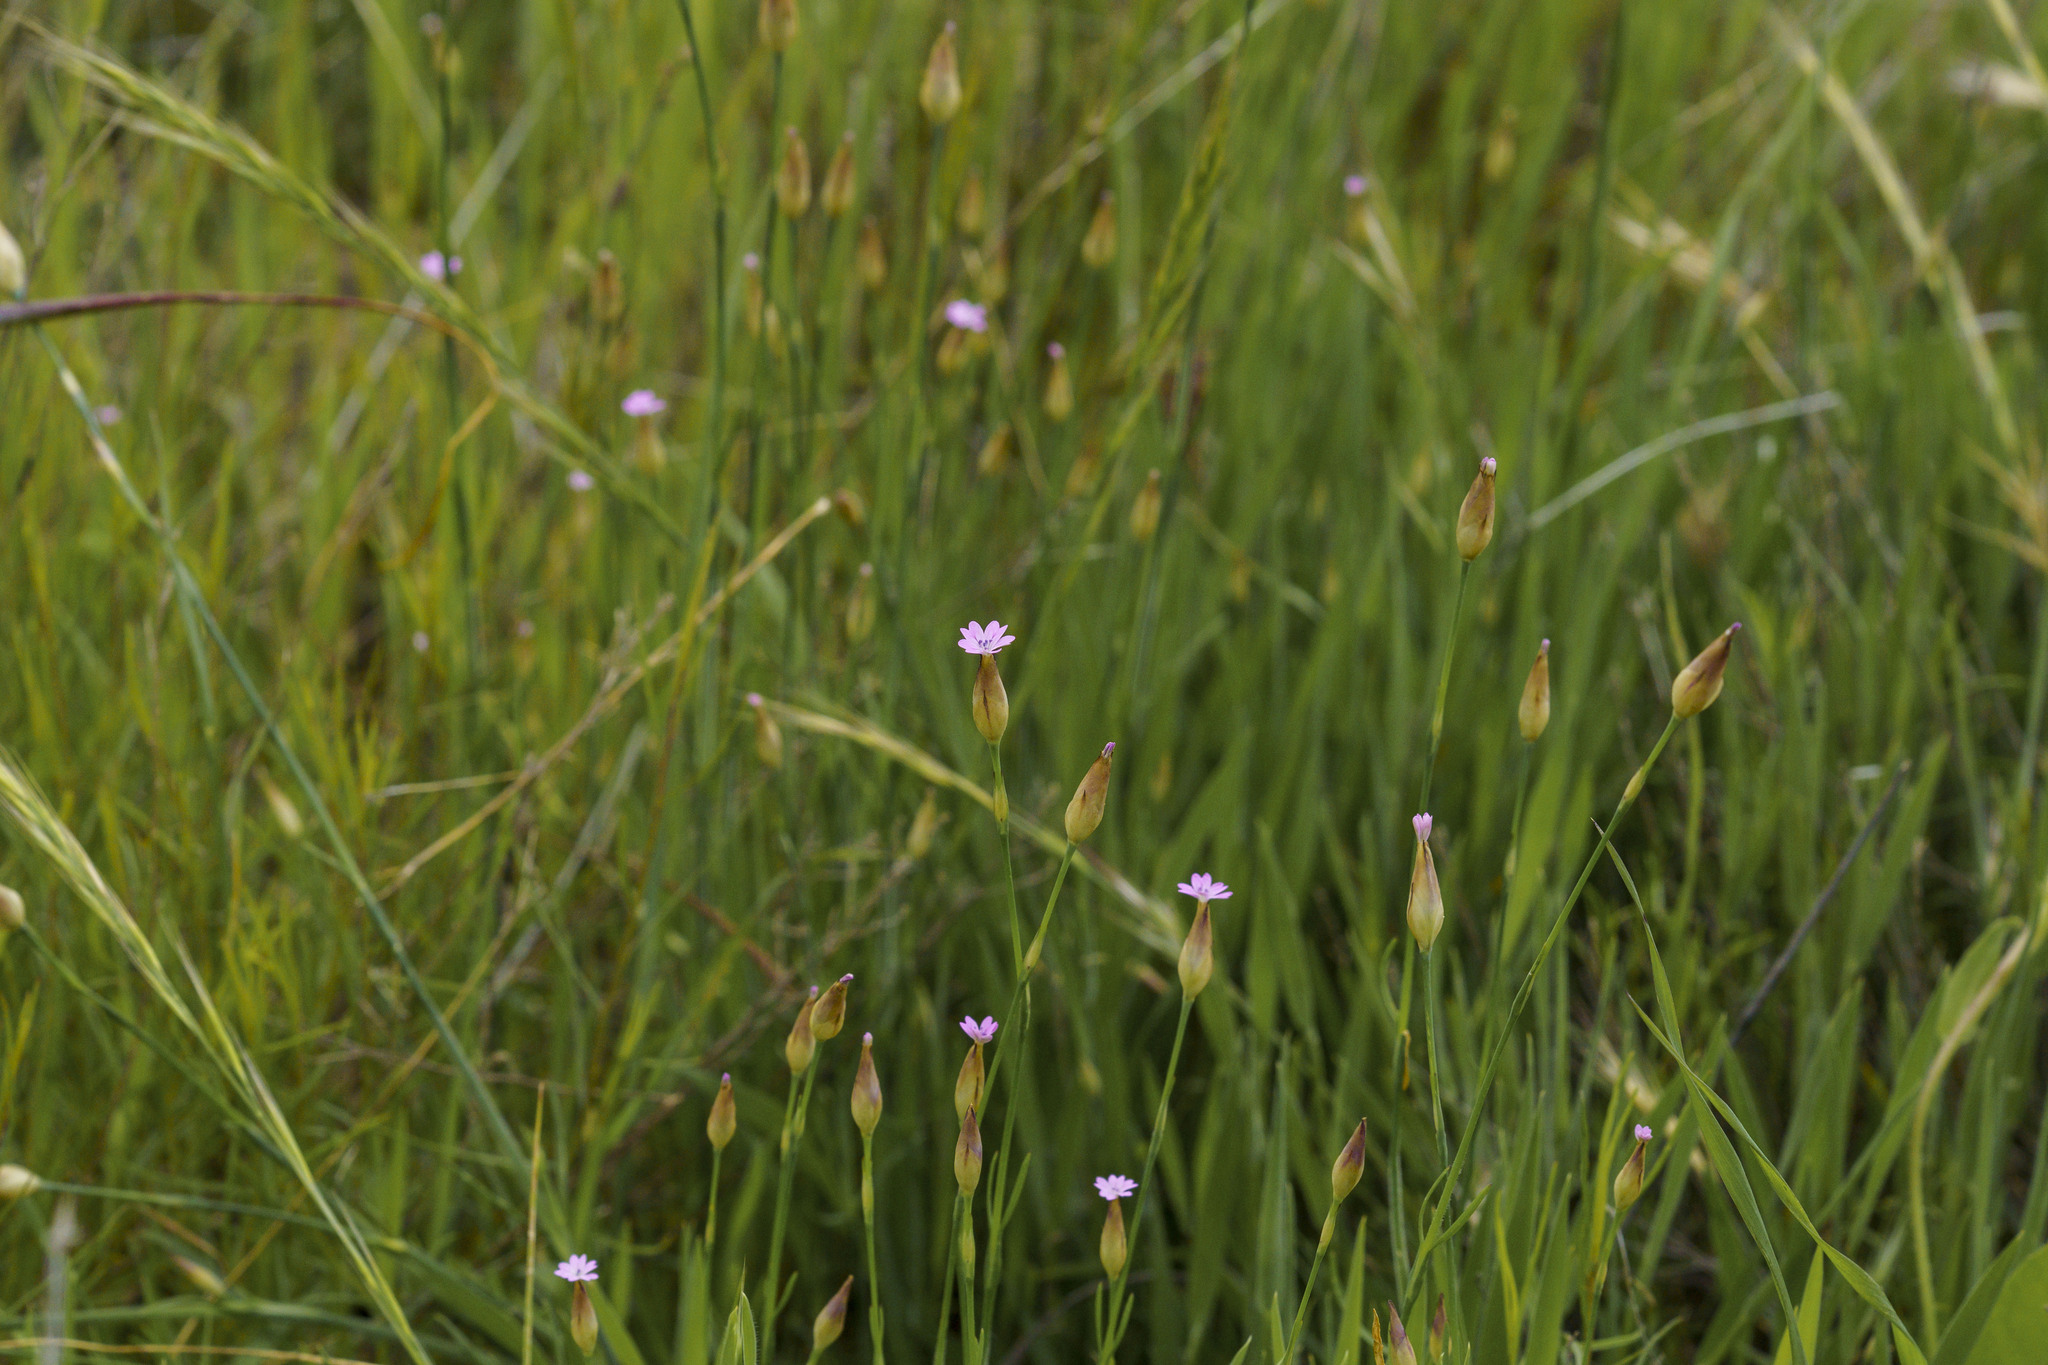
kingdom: Plantae
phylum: Tracheophyta
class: Magnoliopsida
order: Caryophyllales
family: Caryophyllaceae
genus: Petrorhagia
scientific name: Petrorhagia dubia
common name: Hairypink
